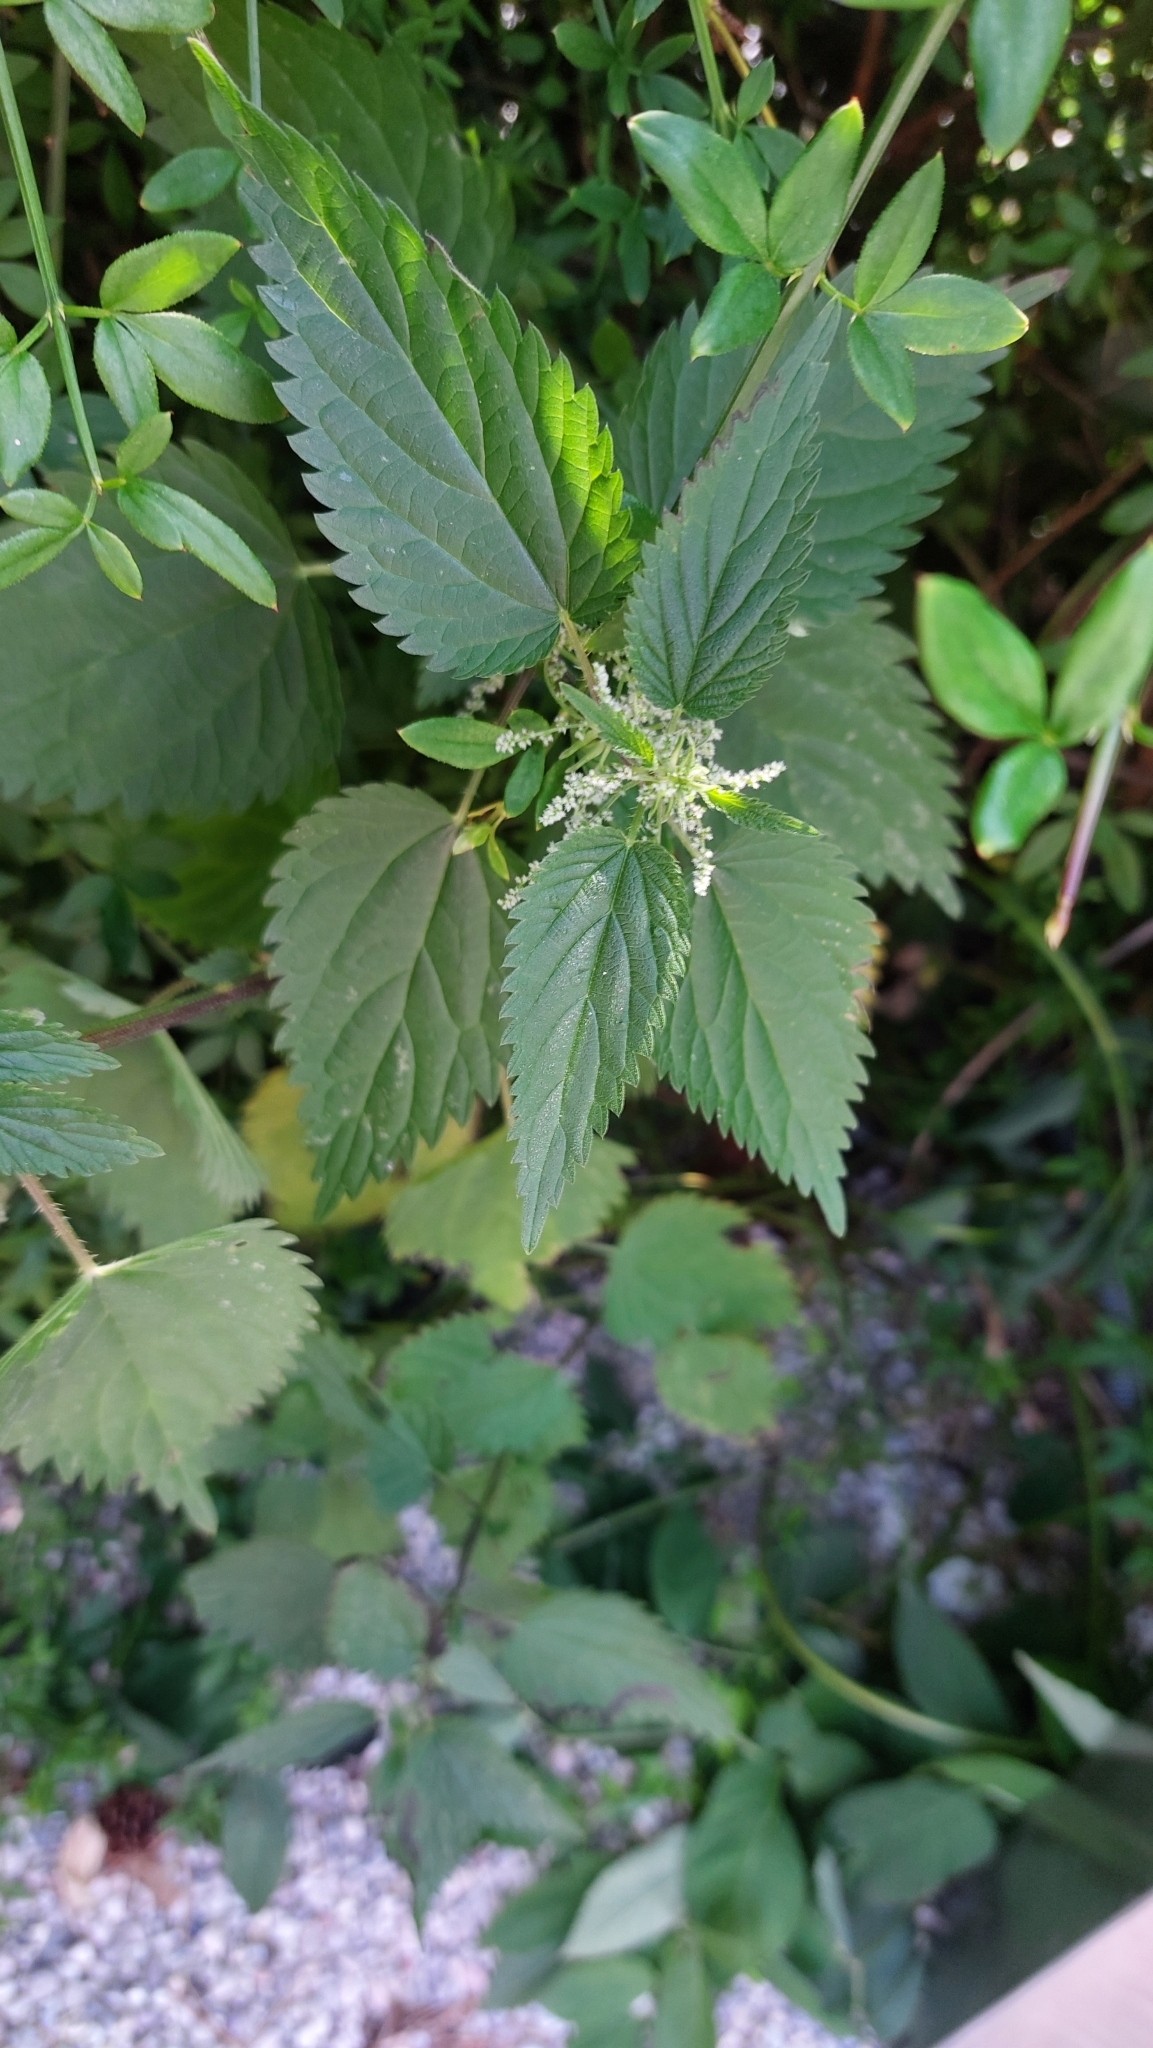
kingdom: Plantae
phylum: Tracheophyta
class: Magnoliopsida
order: Rosales
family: Urticaceae
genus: Urtica
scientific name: Urtica dioica
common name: Common nettle
